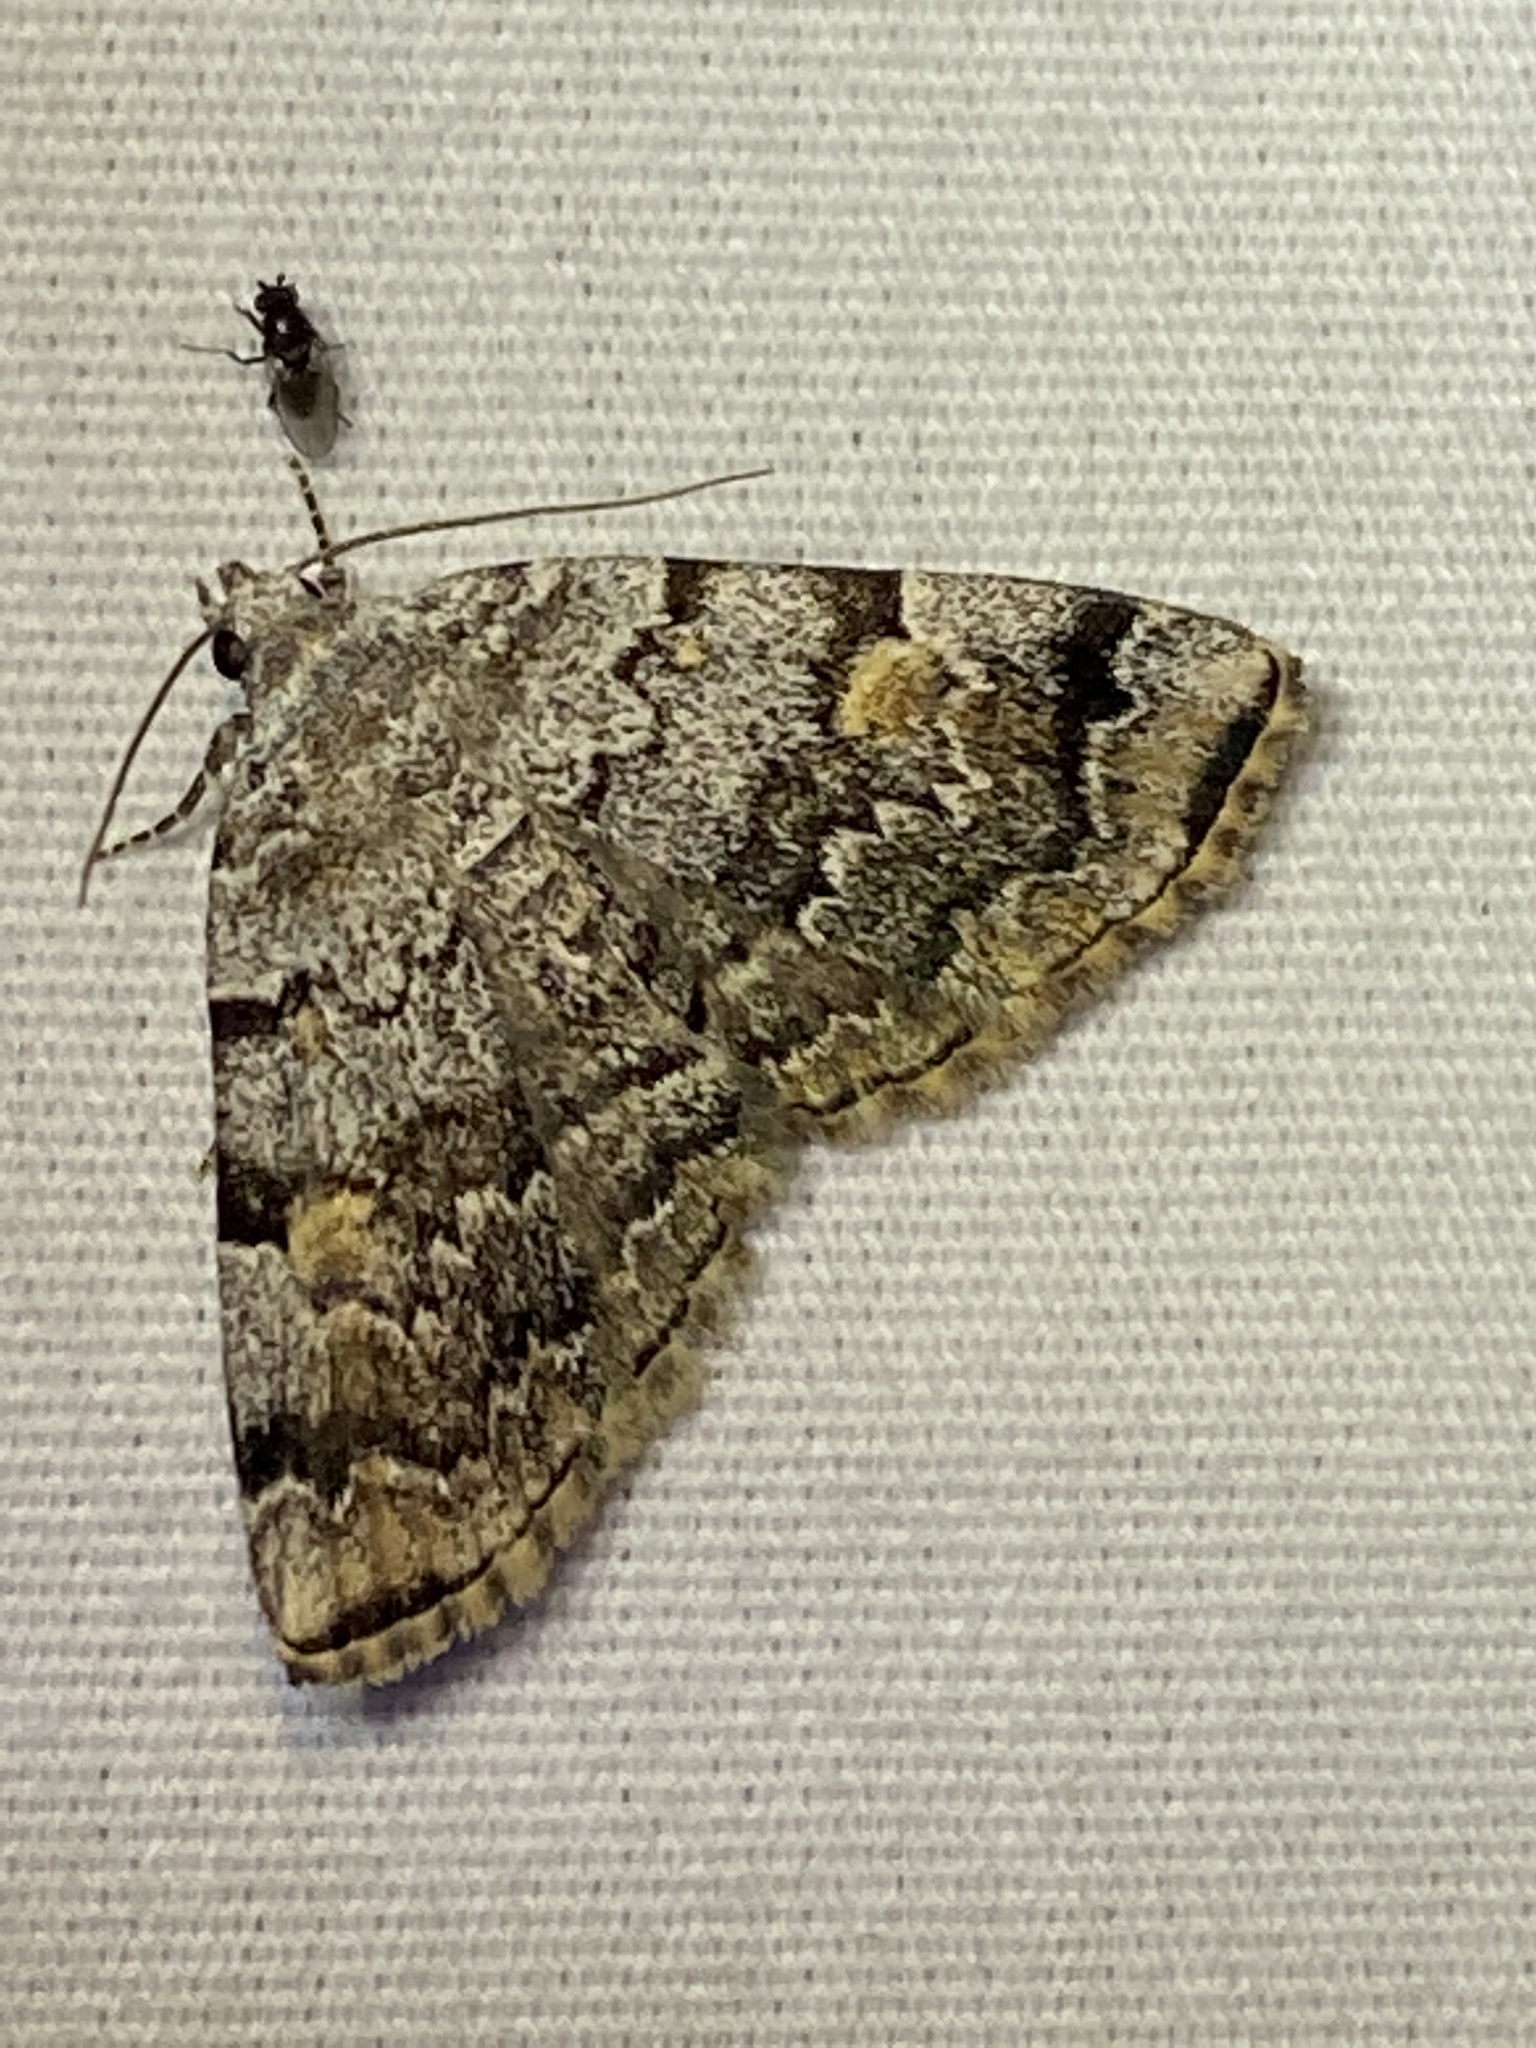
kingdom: Animalia
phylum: Arthropoda
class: Insecta
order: Lepidoptera
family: Erebidae
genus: Idia
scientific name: Idia americalis
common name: American idia moth
